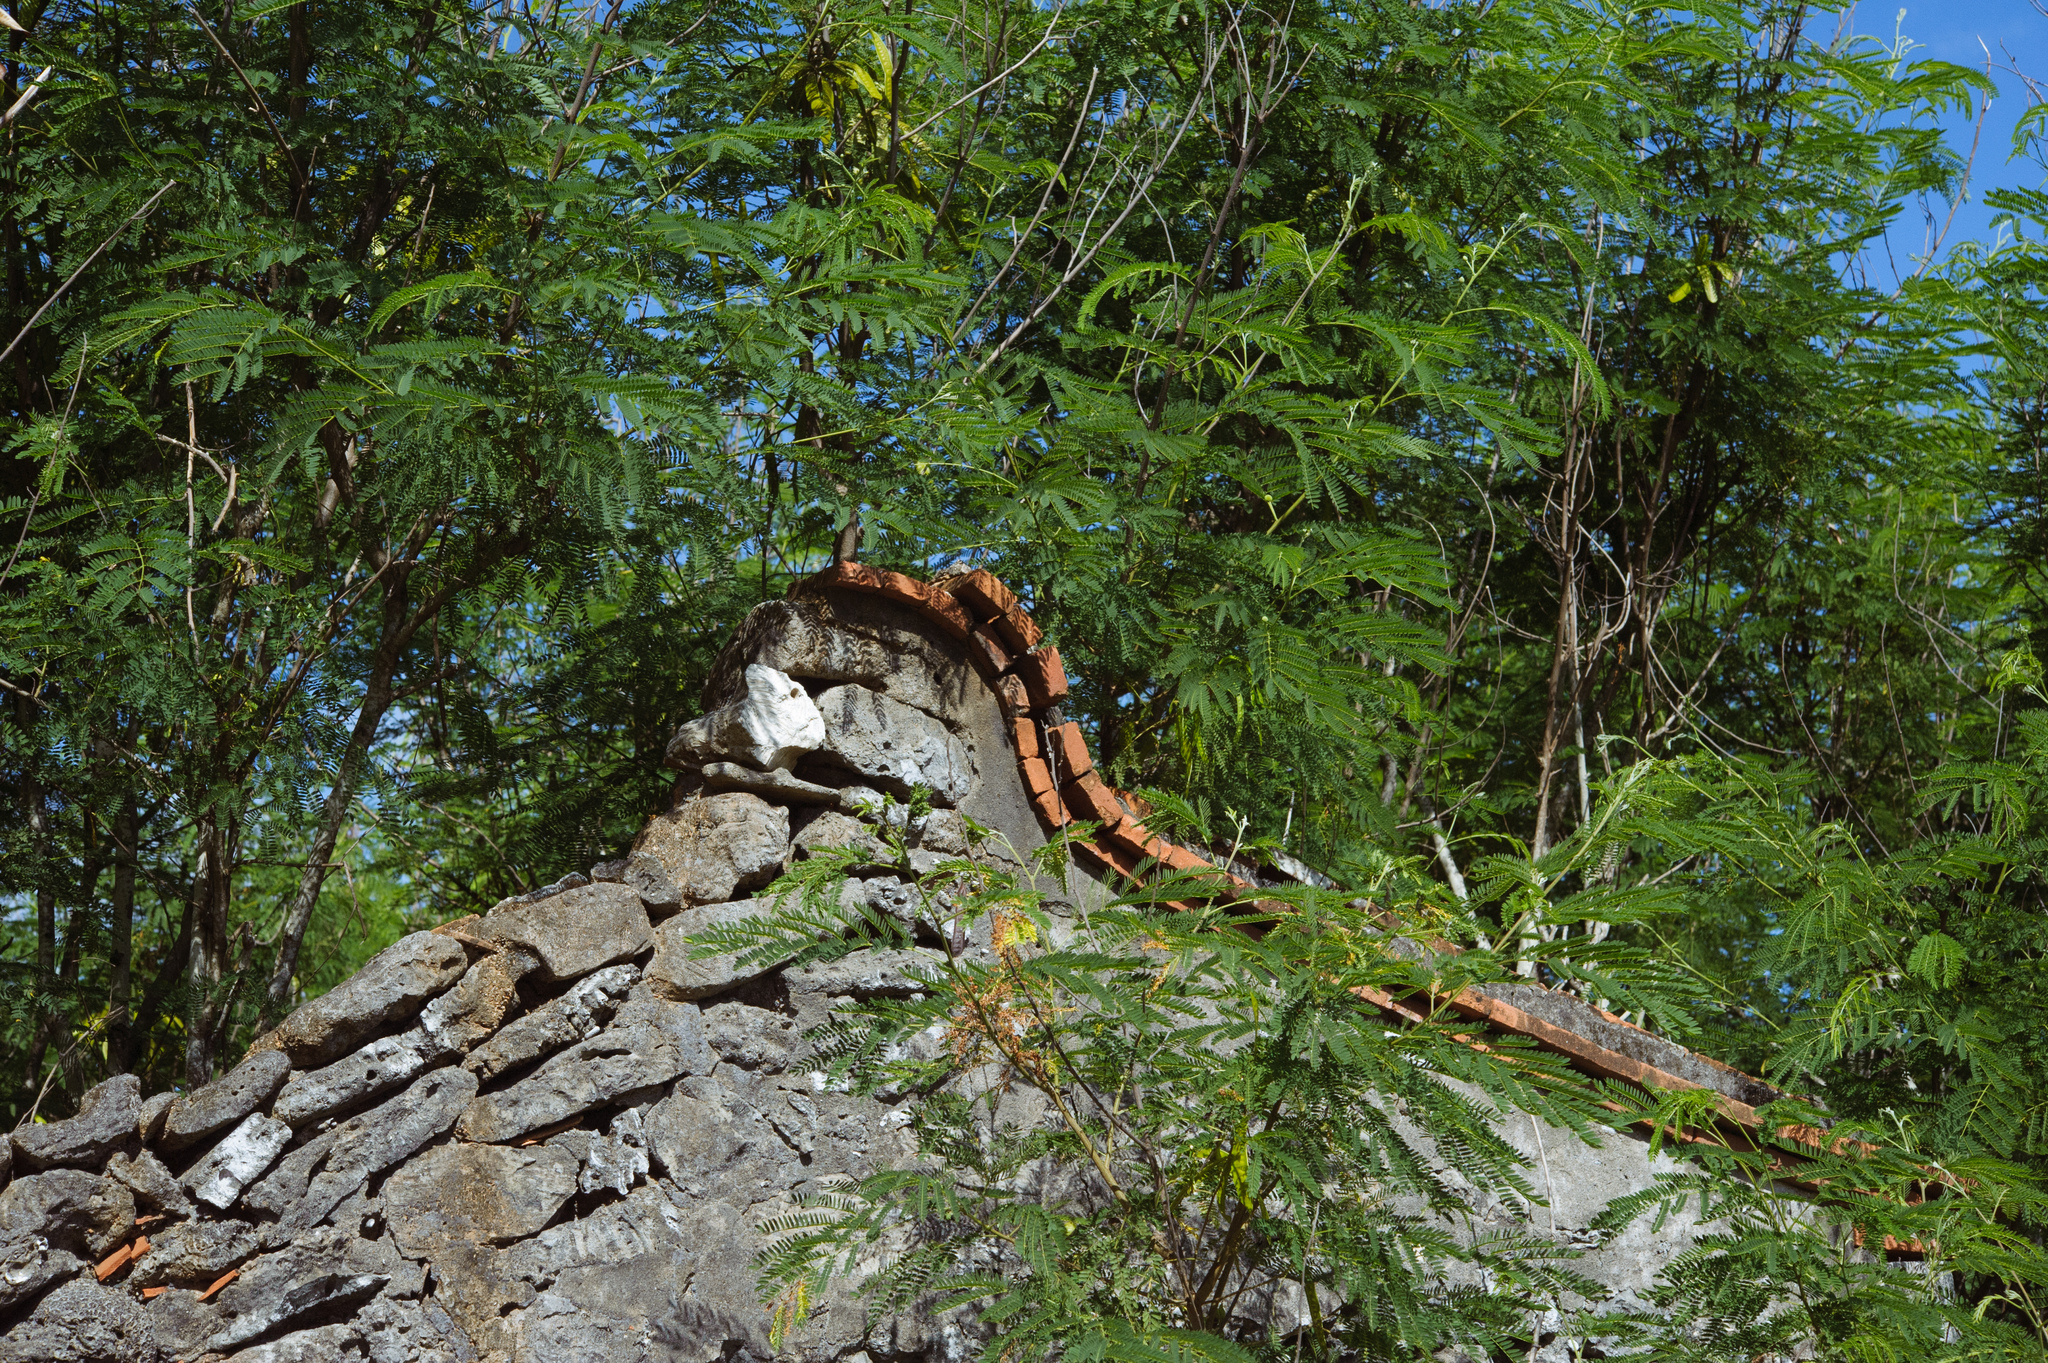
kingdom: Plantae
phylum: Tracheophyta
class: Magnoliopsida
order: Fabales
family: Fabaceae
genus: Leucaena
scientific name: Leucaena leucocephala
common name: White leadtree
